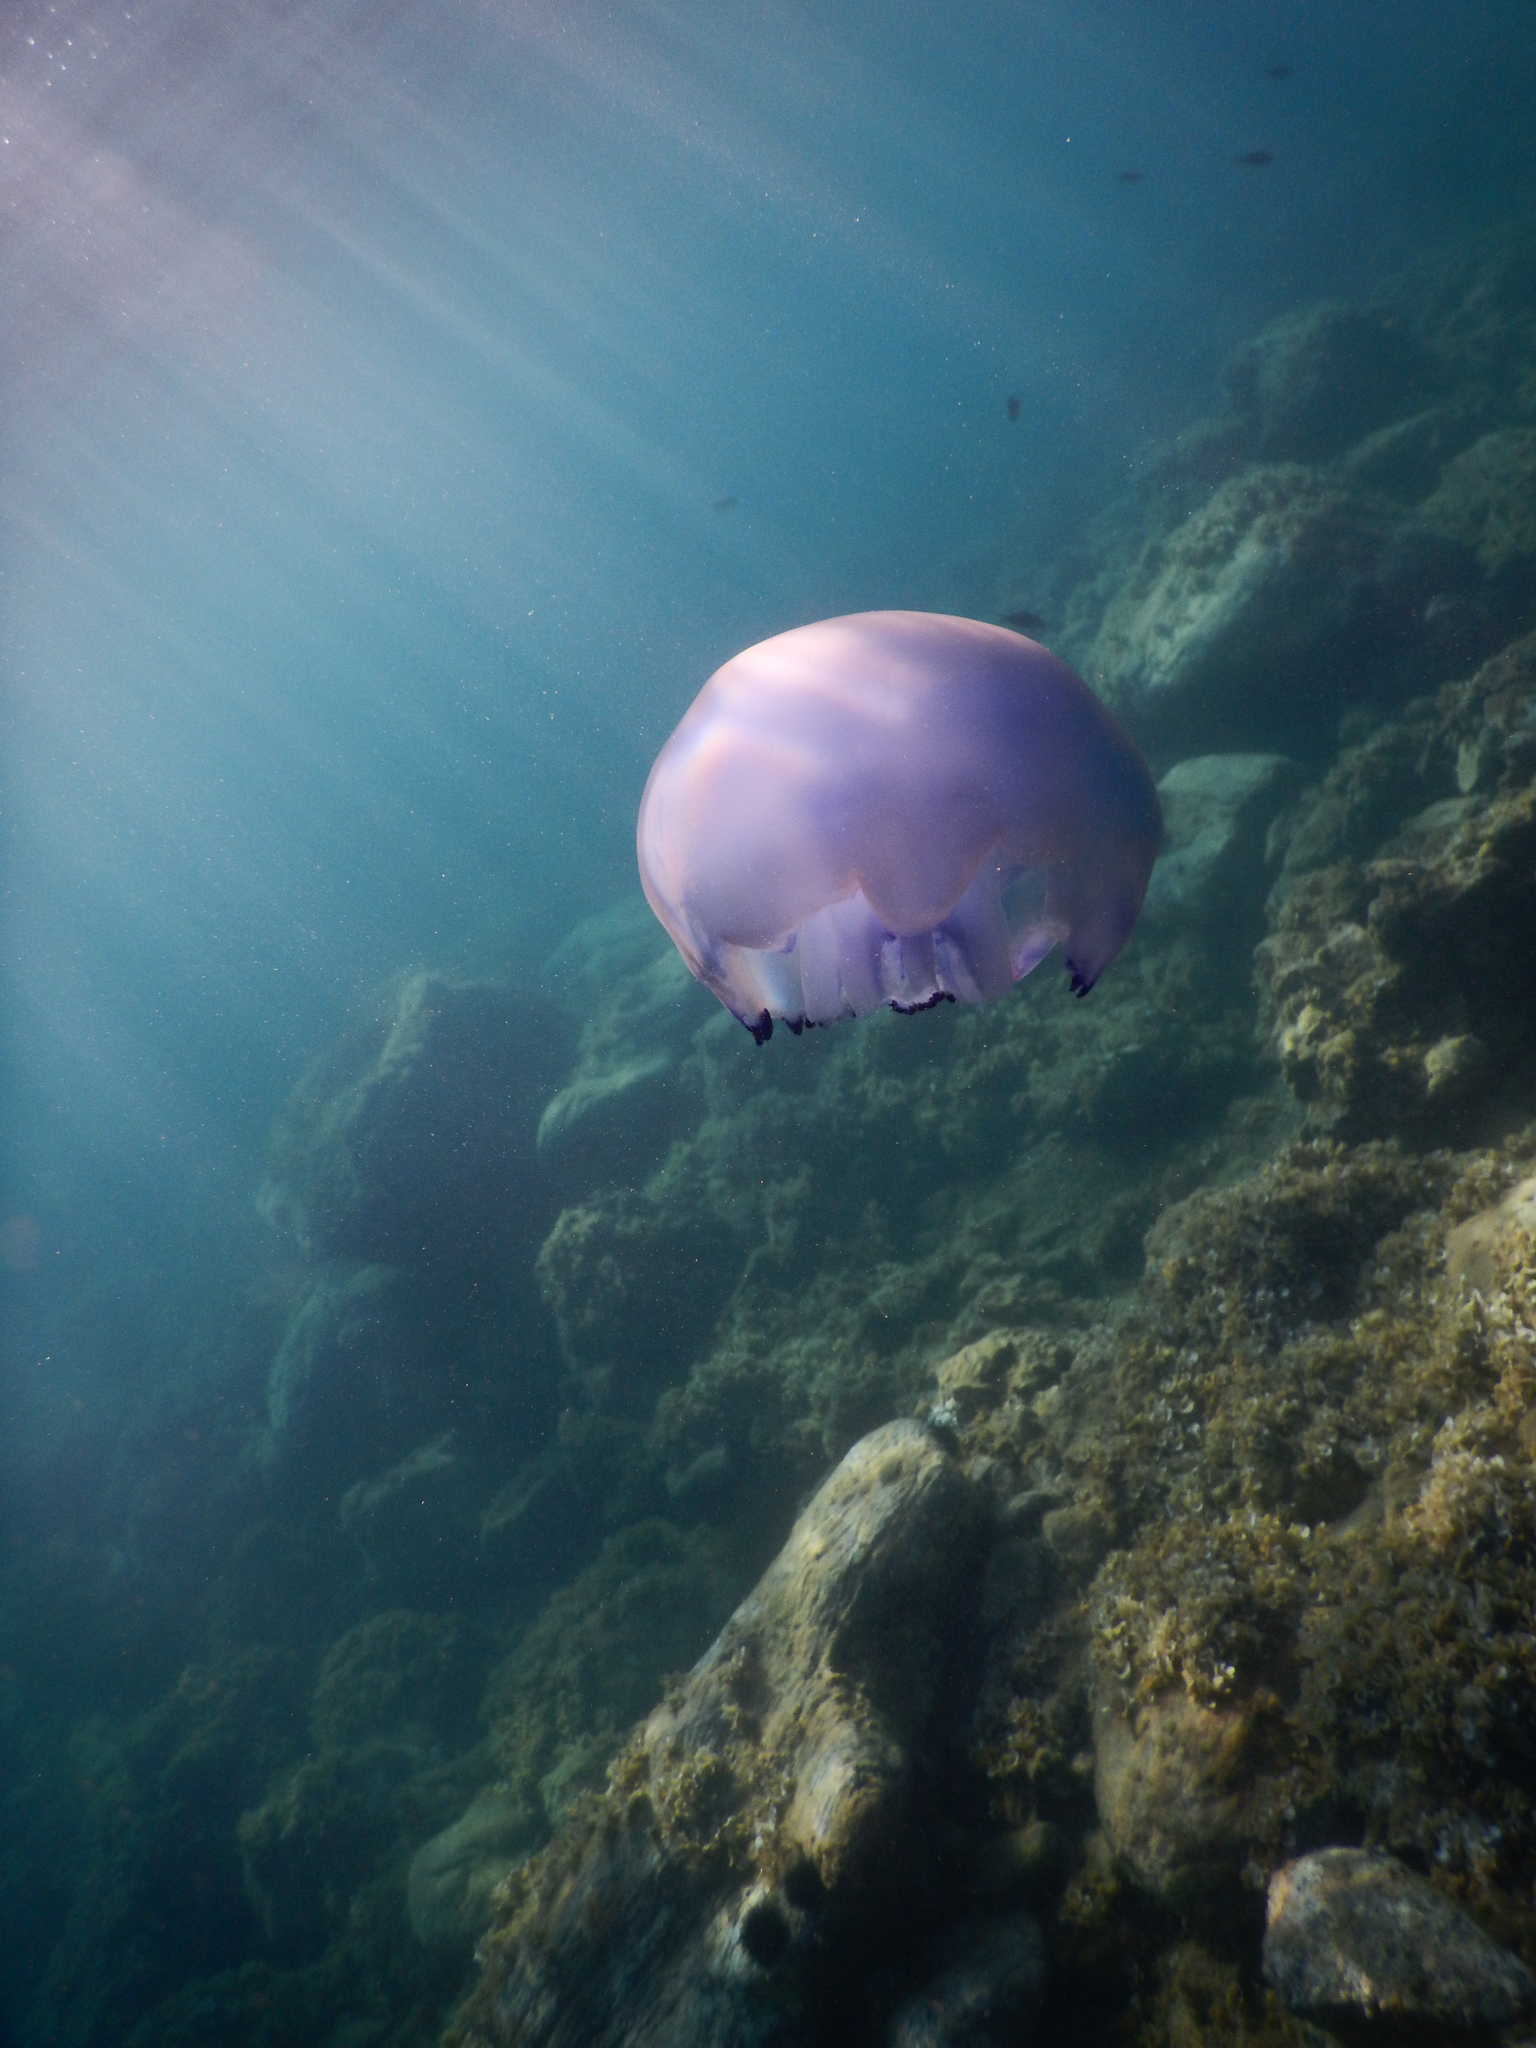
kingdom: Animalia
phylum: Cnidaria
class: Scyphozoa
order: Rhizostomeae
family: Rhizostomatidae
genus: Rhizostoma
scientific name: Rhizostoma pulmo
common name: Barrel jellyfish
